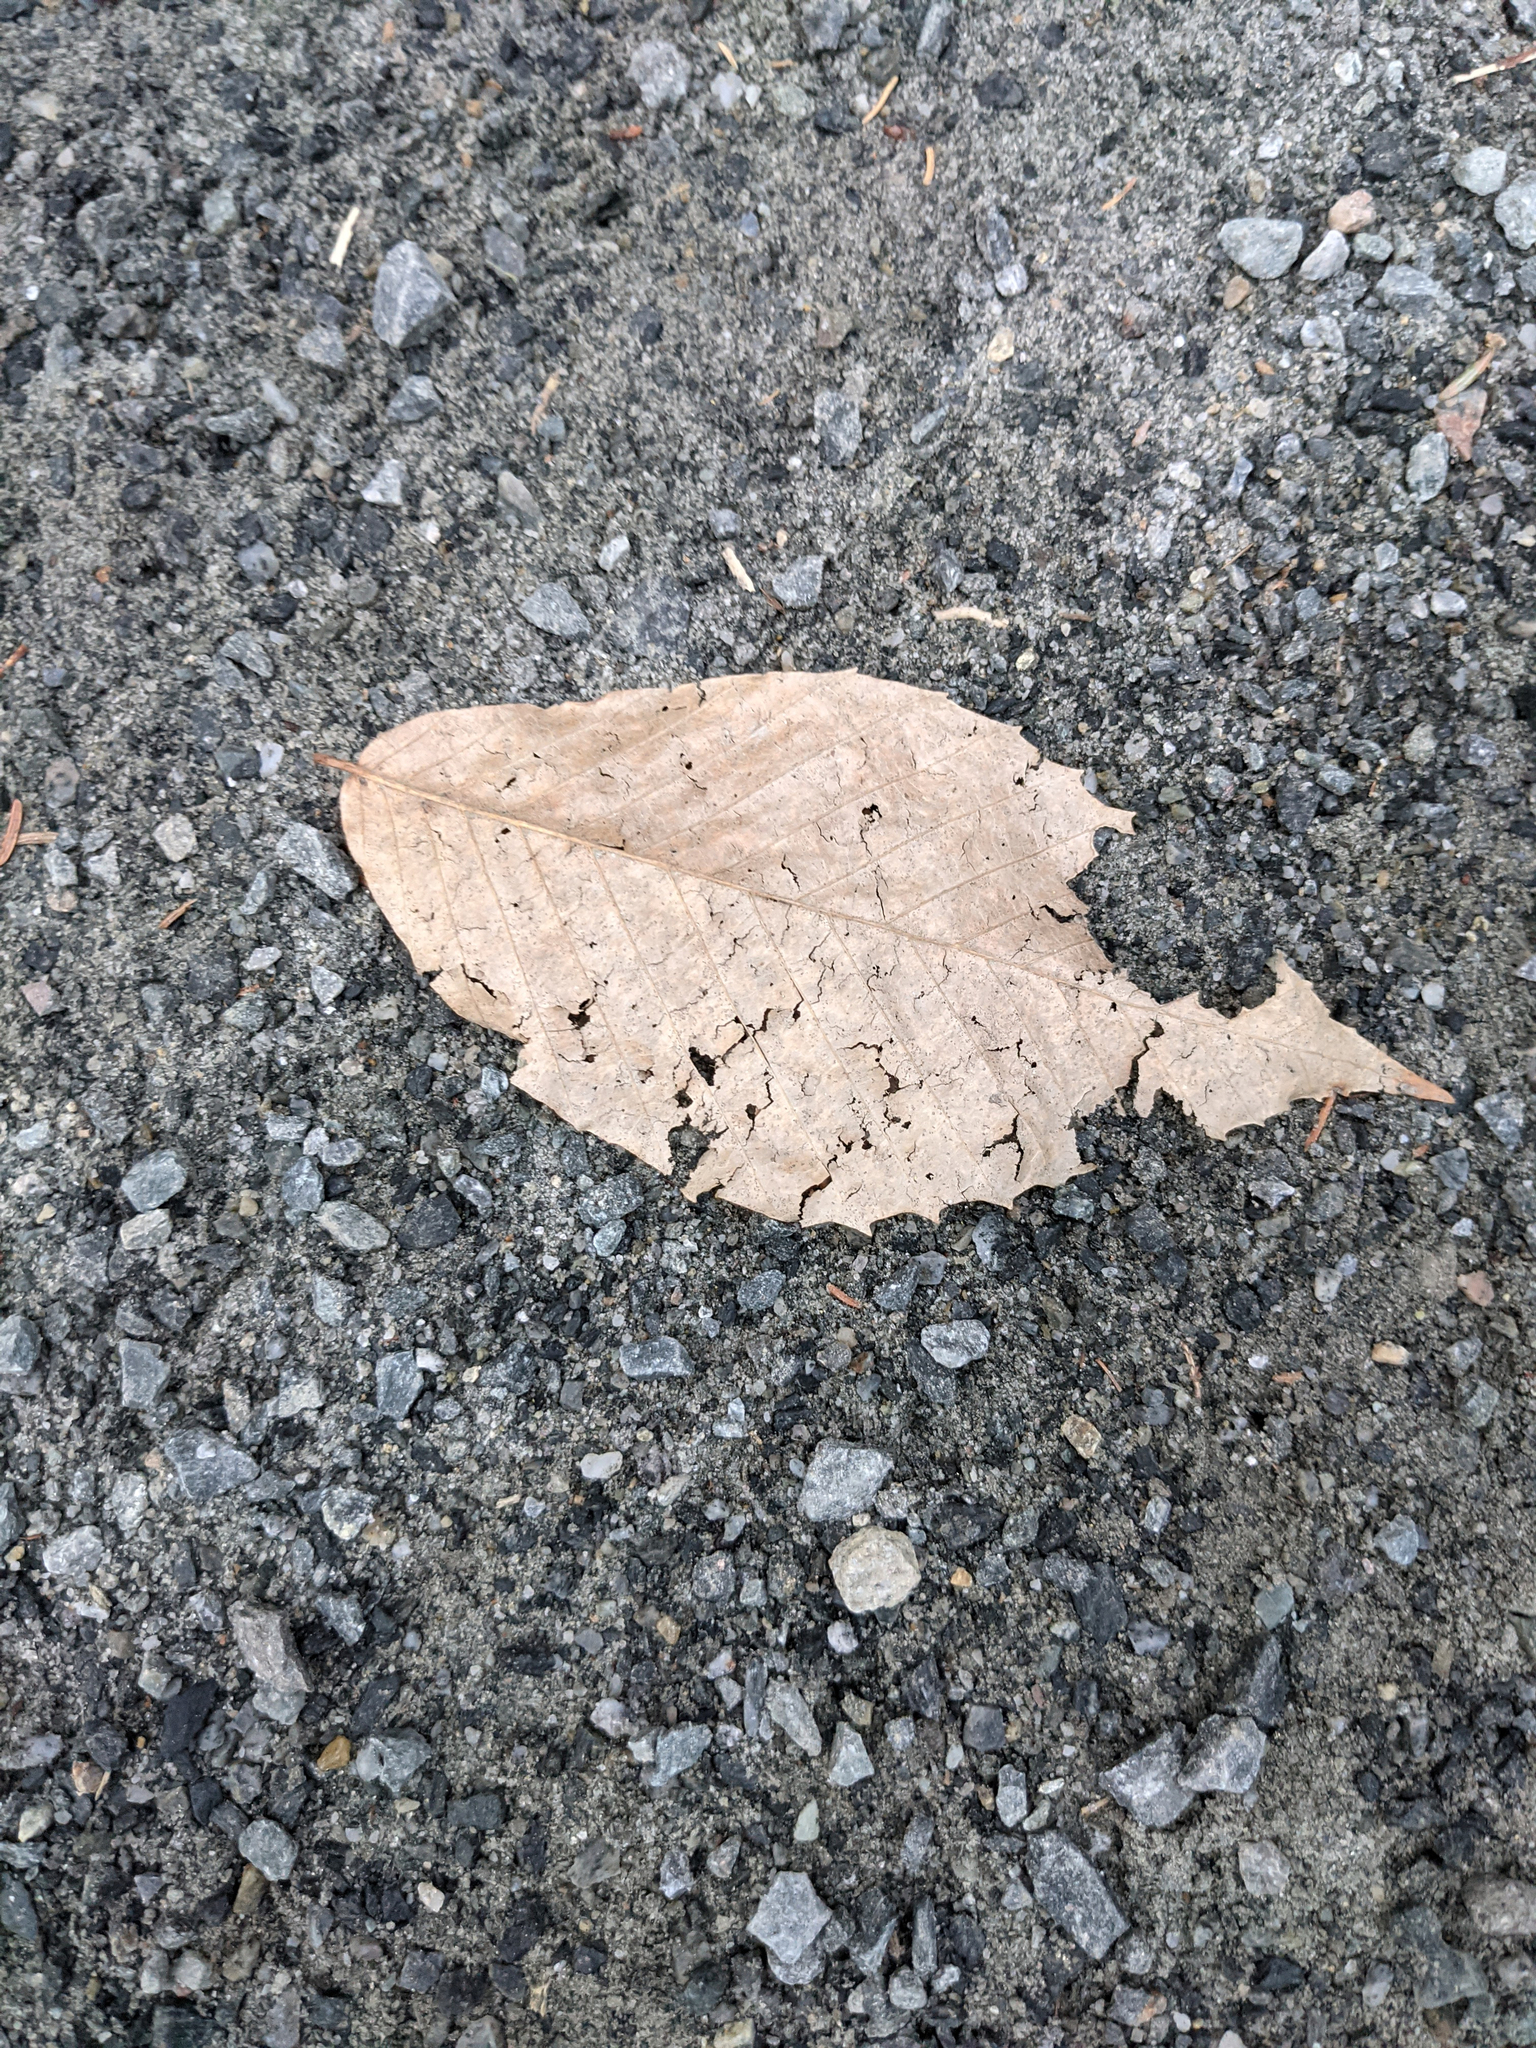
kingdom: Plantae
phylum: Tracheophyta
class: Magnoliopsida
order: Fagales
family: Fagaceae
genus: Fagus
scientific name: Fagus grandifolia
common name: American beech
